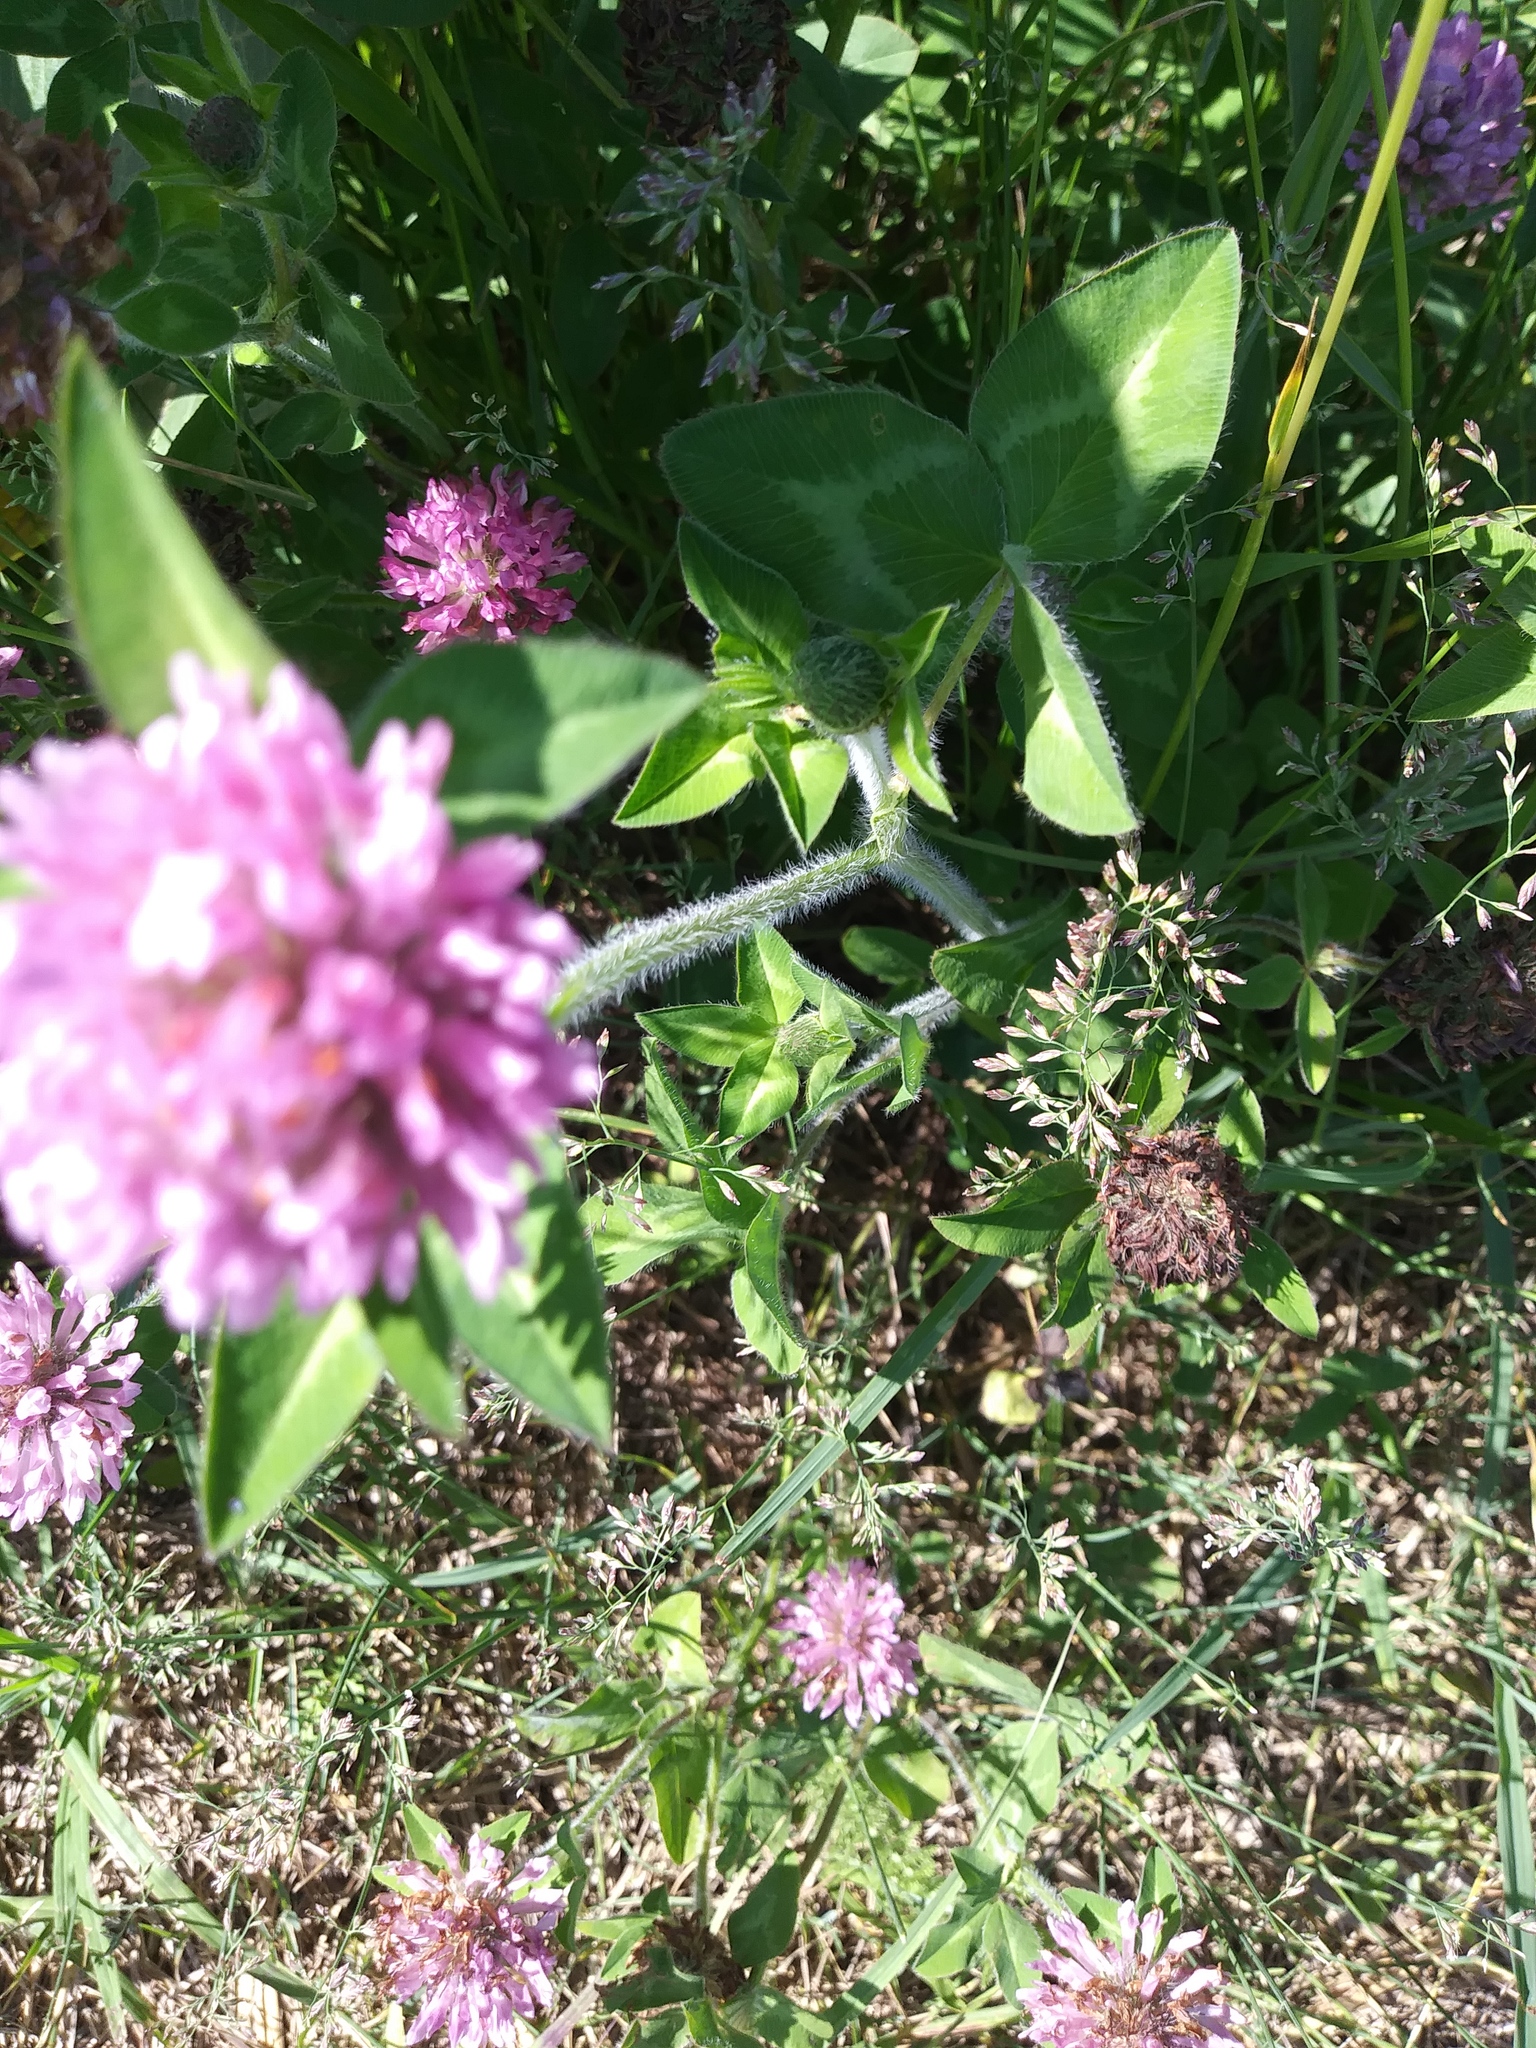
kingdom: Plantae
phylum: Tracheophyta
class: Magnoliopsida
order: Fabales
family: Fabaceae
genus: Trifolium
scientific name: Trifolium pratense
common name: Red clover
